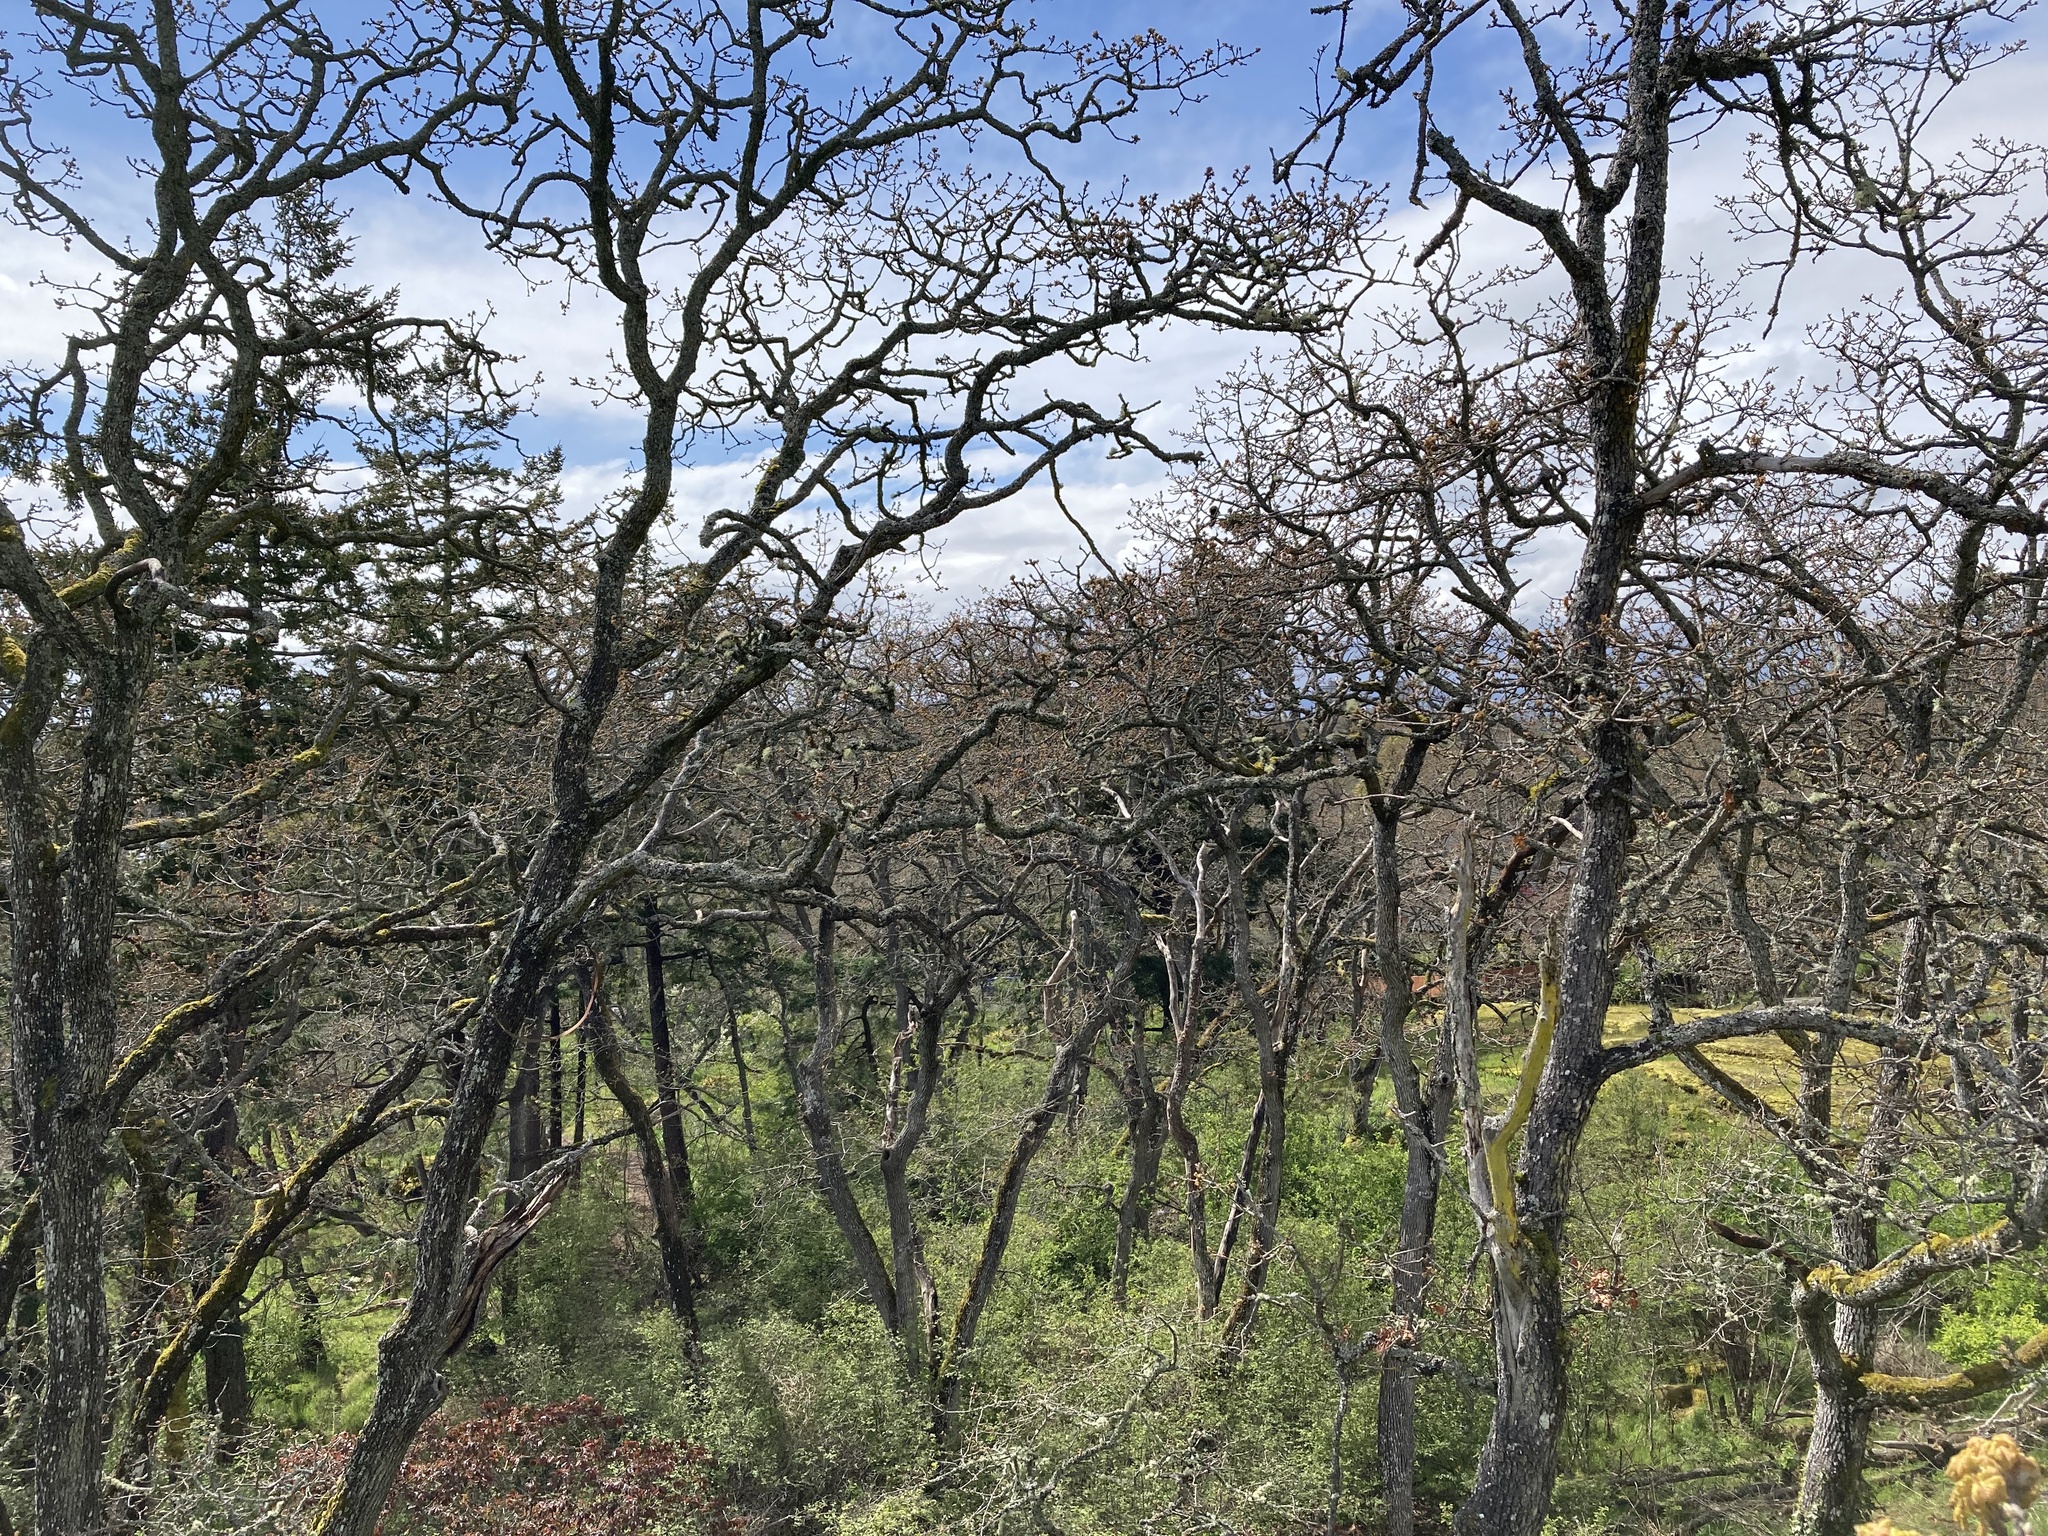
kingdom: Plantae
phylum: Tracheophyta
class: Magnoliopsida
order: Fagales
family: Fagaceae
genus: Quercus
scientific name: Quercus garryana
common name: Garry oak
